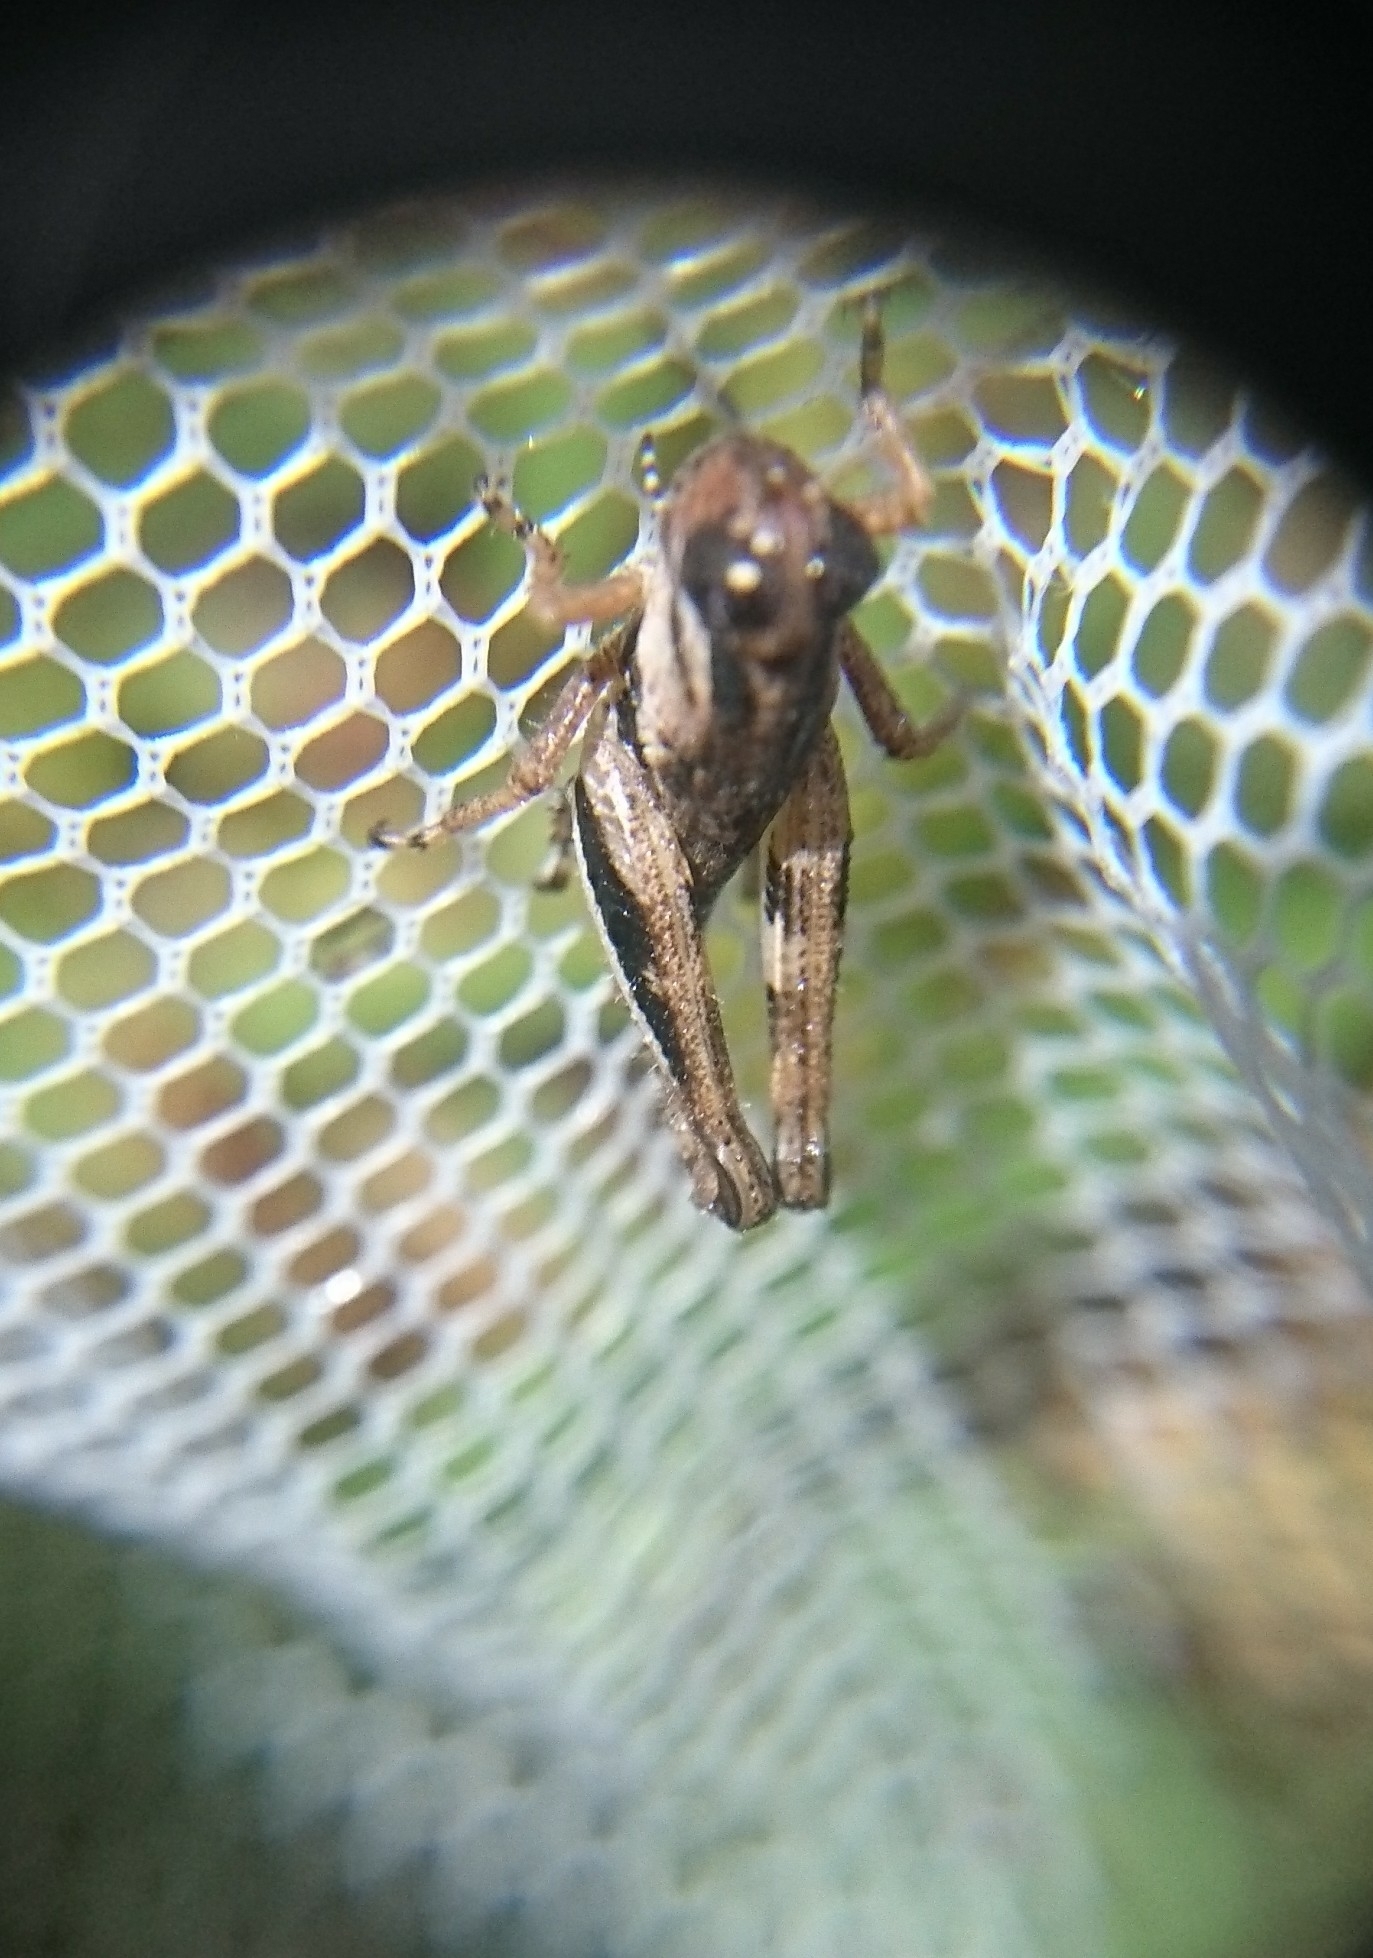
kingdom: Animalia
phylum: Arthropoda
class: Insecta
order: Orthoptera
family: Acrididae
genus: Melanoplus
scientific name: Melanoplus keeleri
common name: Keeler grasshopper
